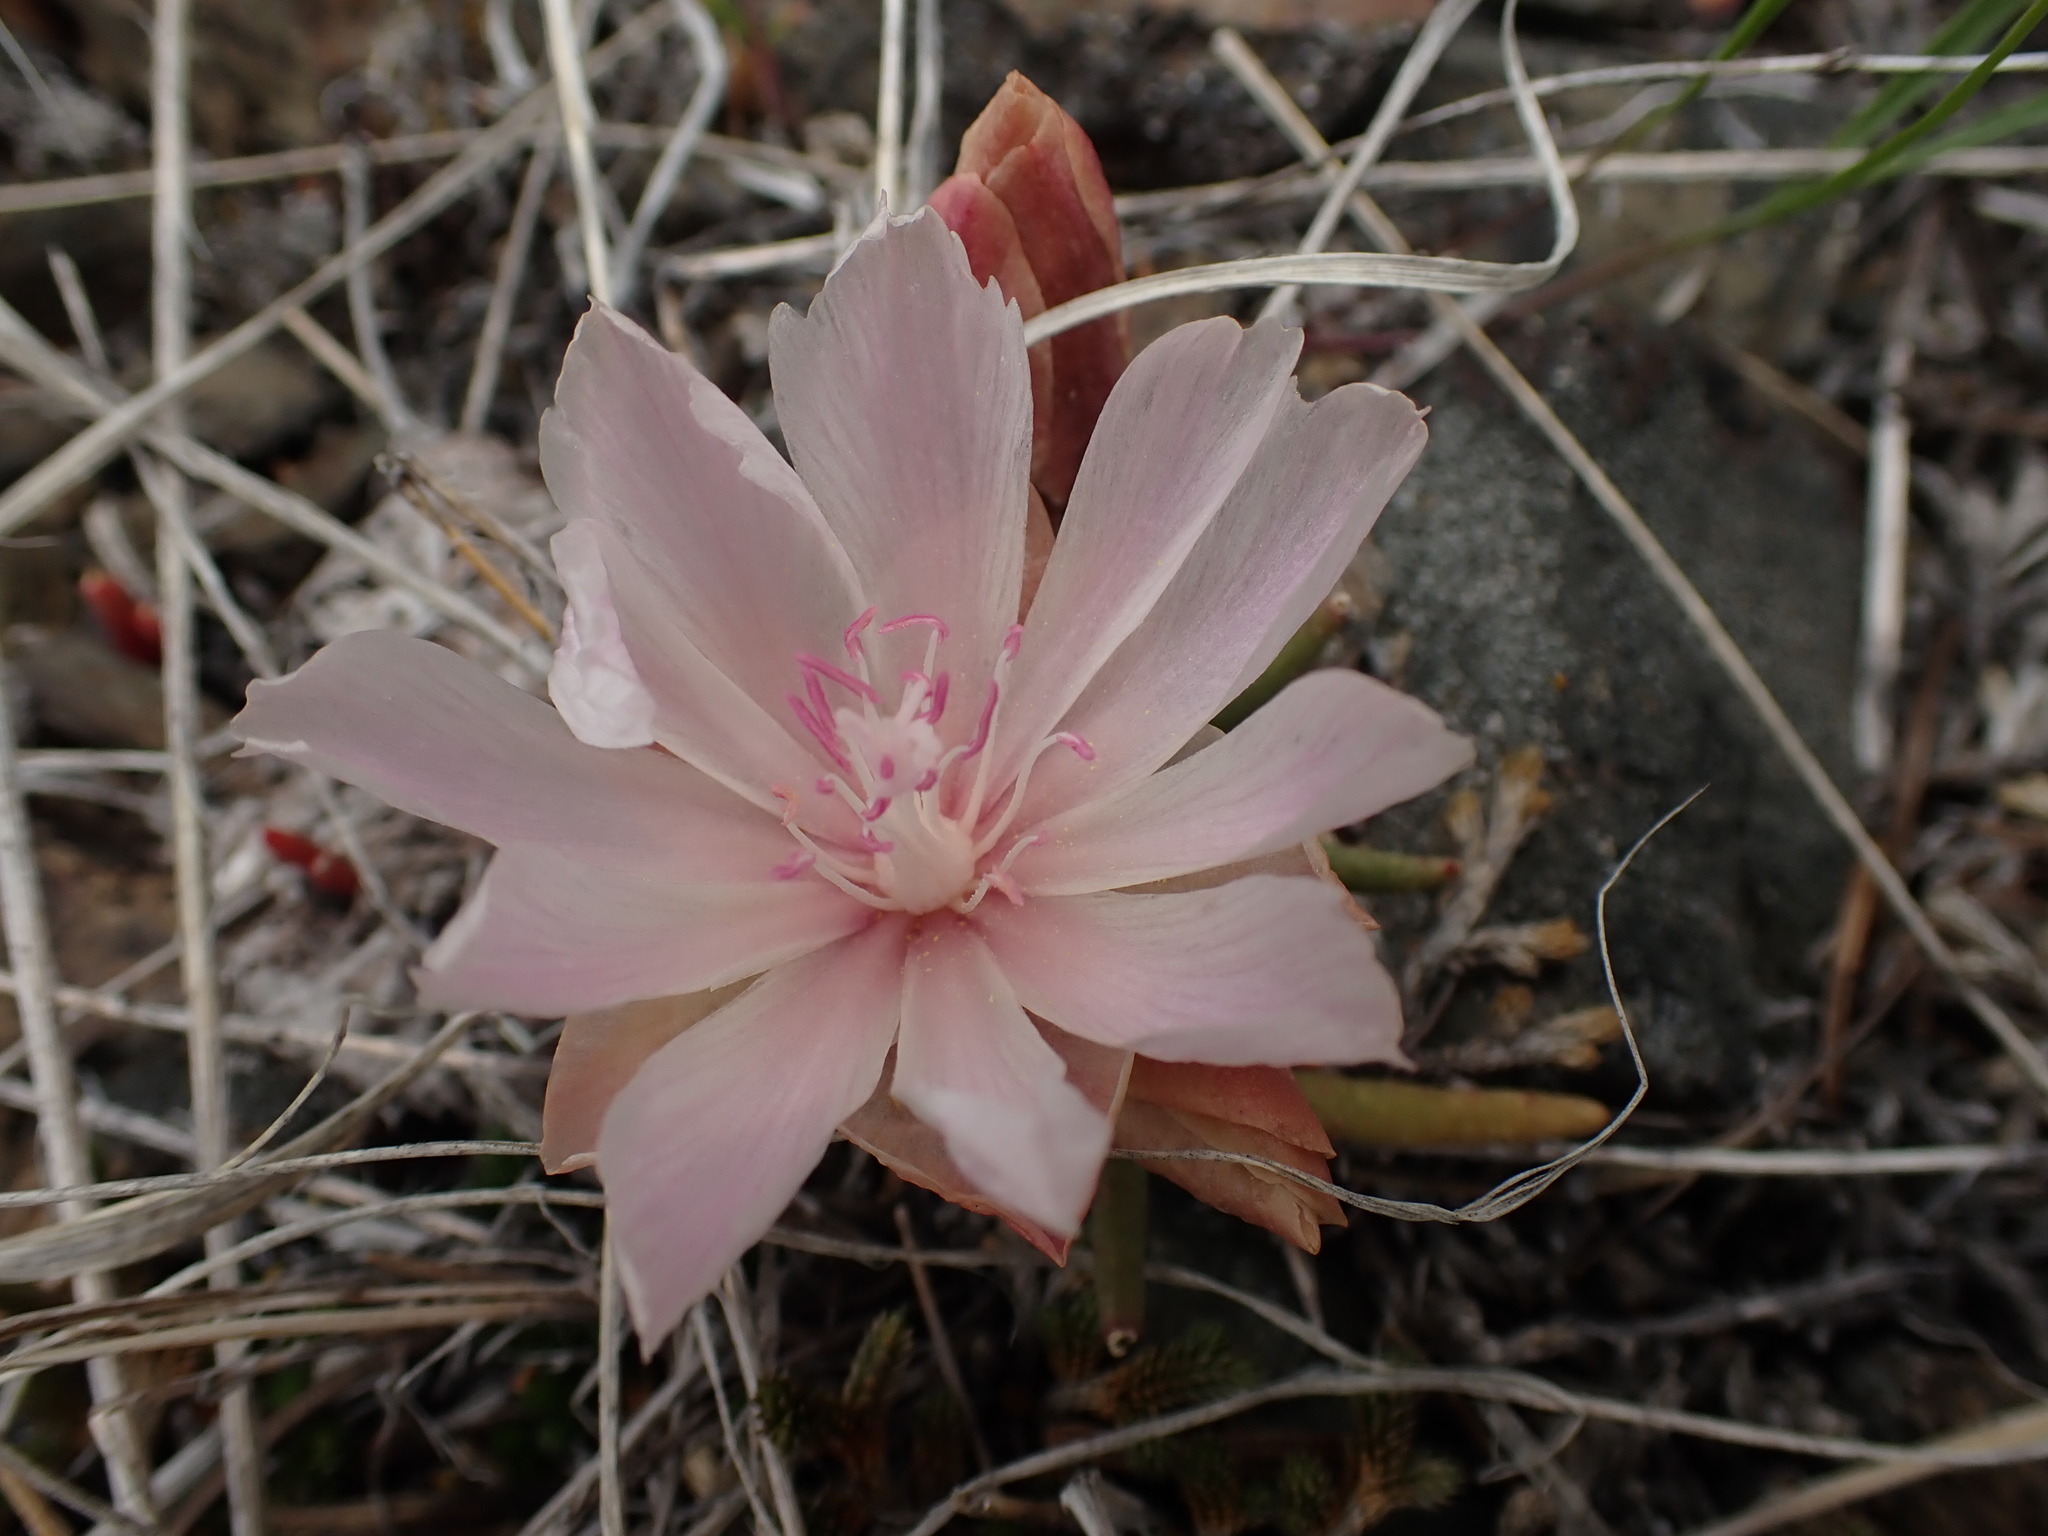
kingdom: Plantae
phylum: Tracheophyta
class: Magnoliopsida
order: Caryophyllales
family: Montiaceae
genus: Lewisia
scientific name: Lewisia rediviva
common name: Bitter-root
